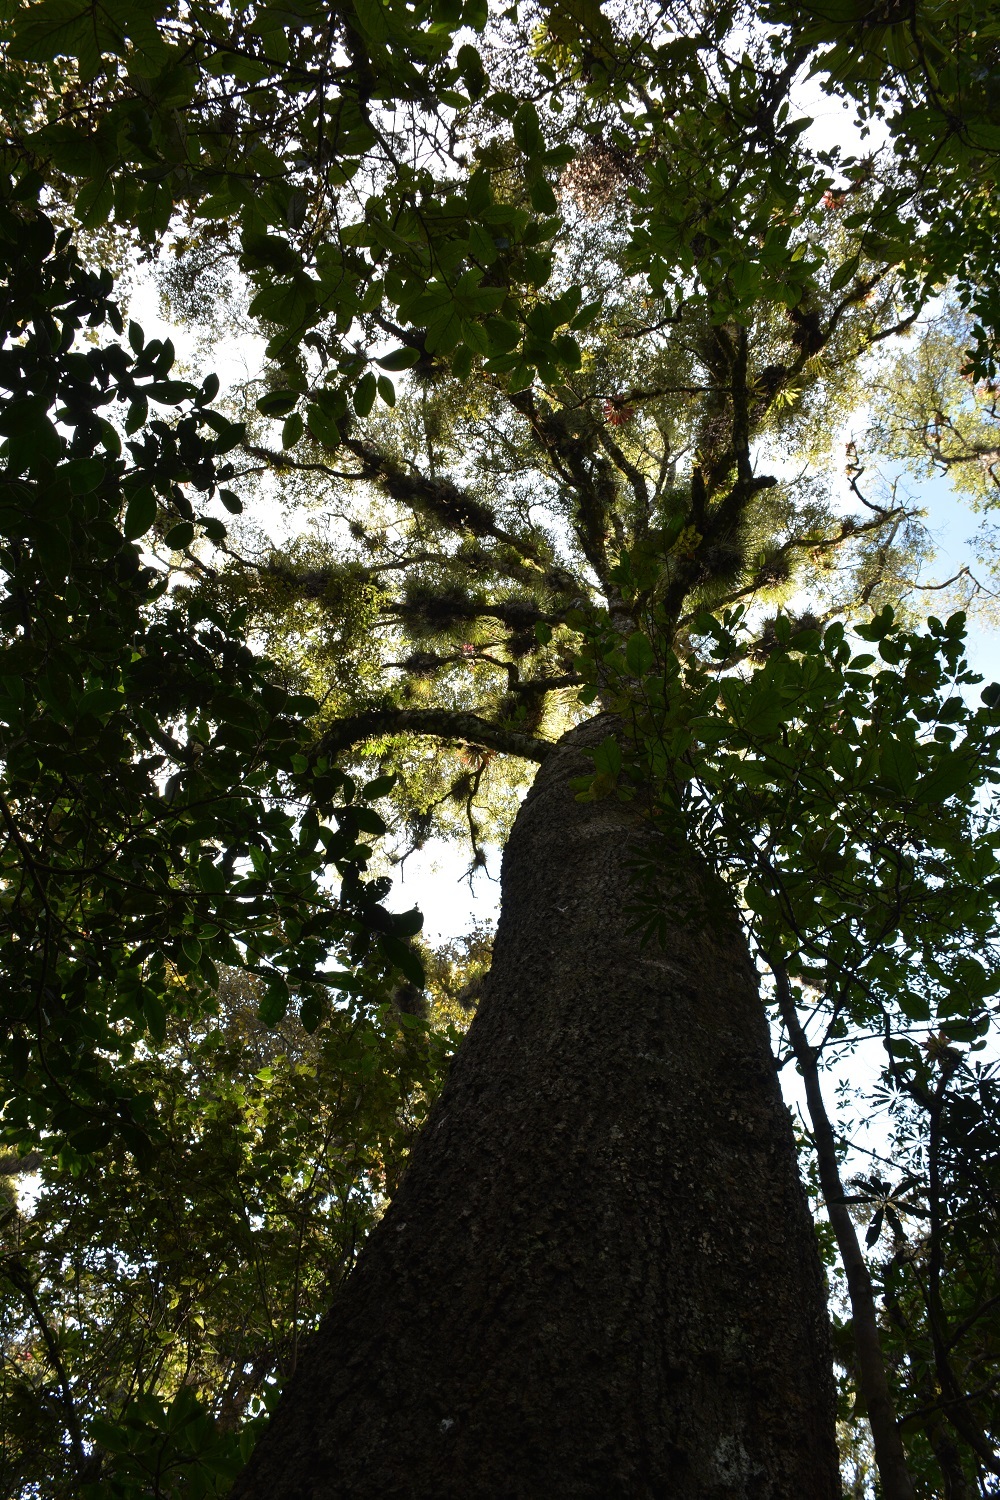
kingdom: Plantae
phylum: Tracheophyta
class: Magnoliopsida
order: Fagales
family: Fagaceae
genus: Quercus
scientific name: Quercus laurina
